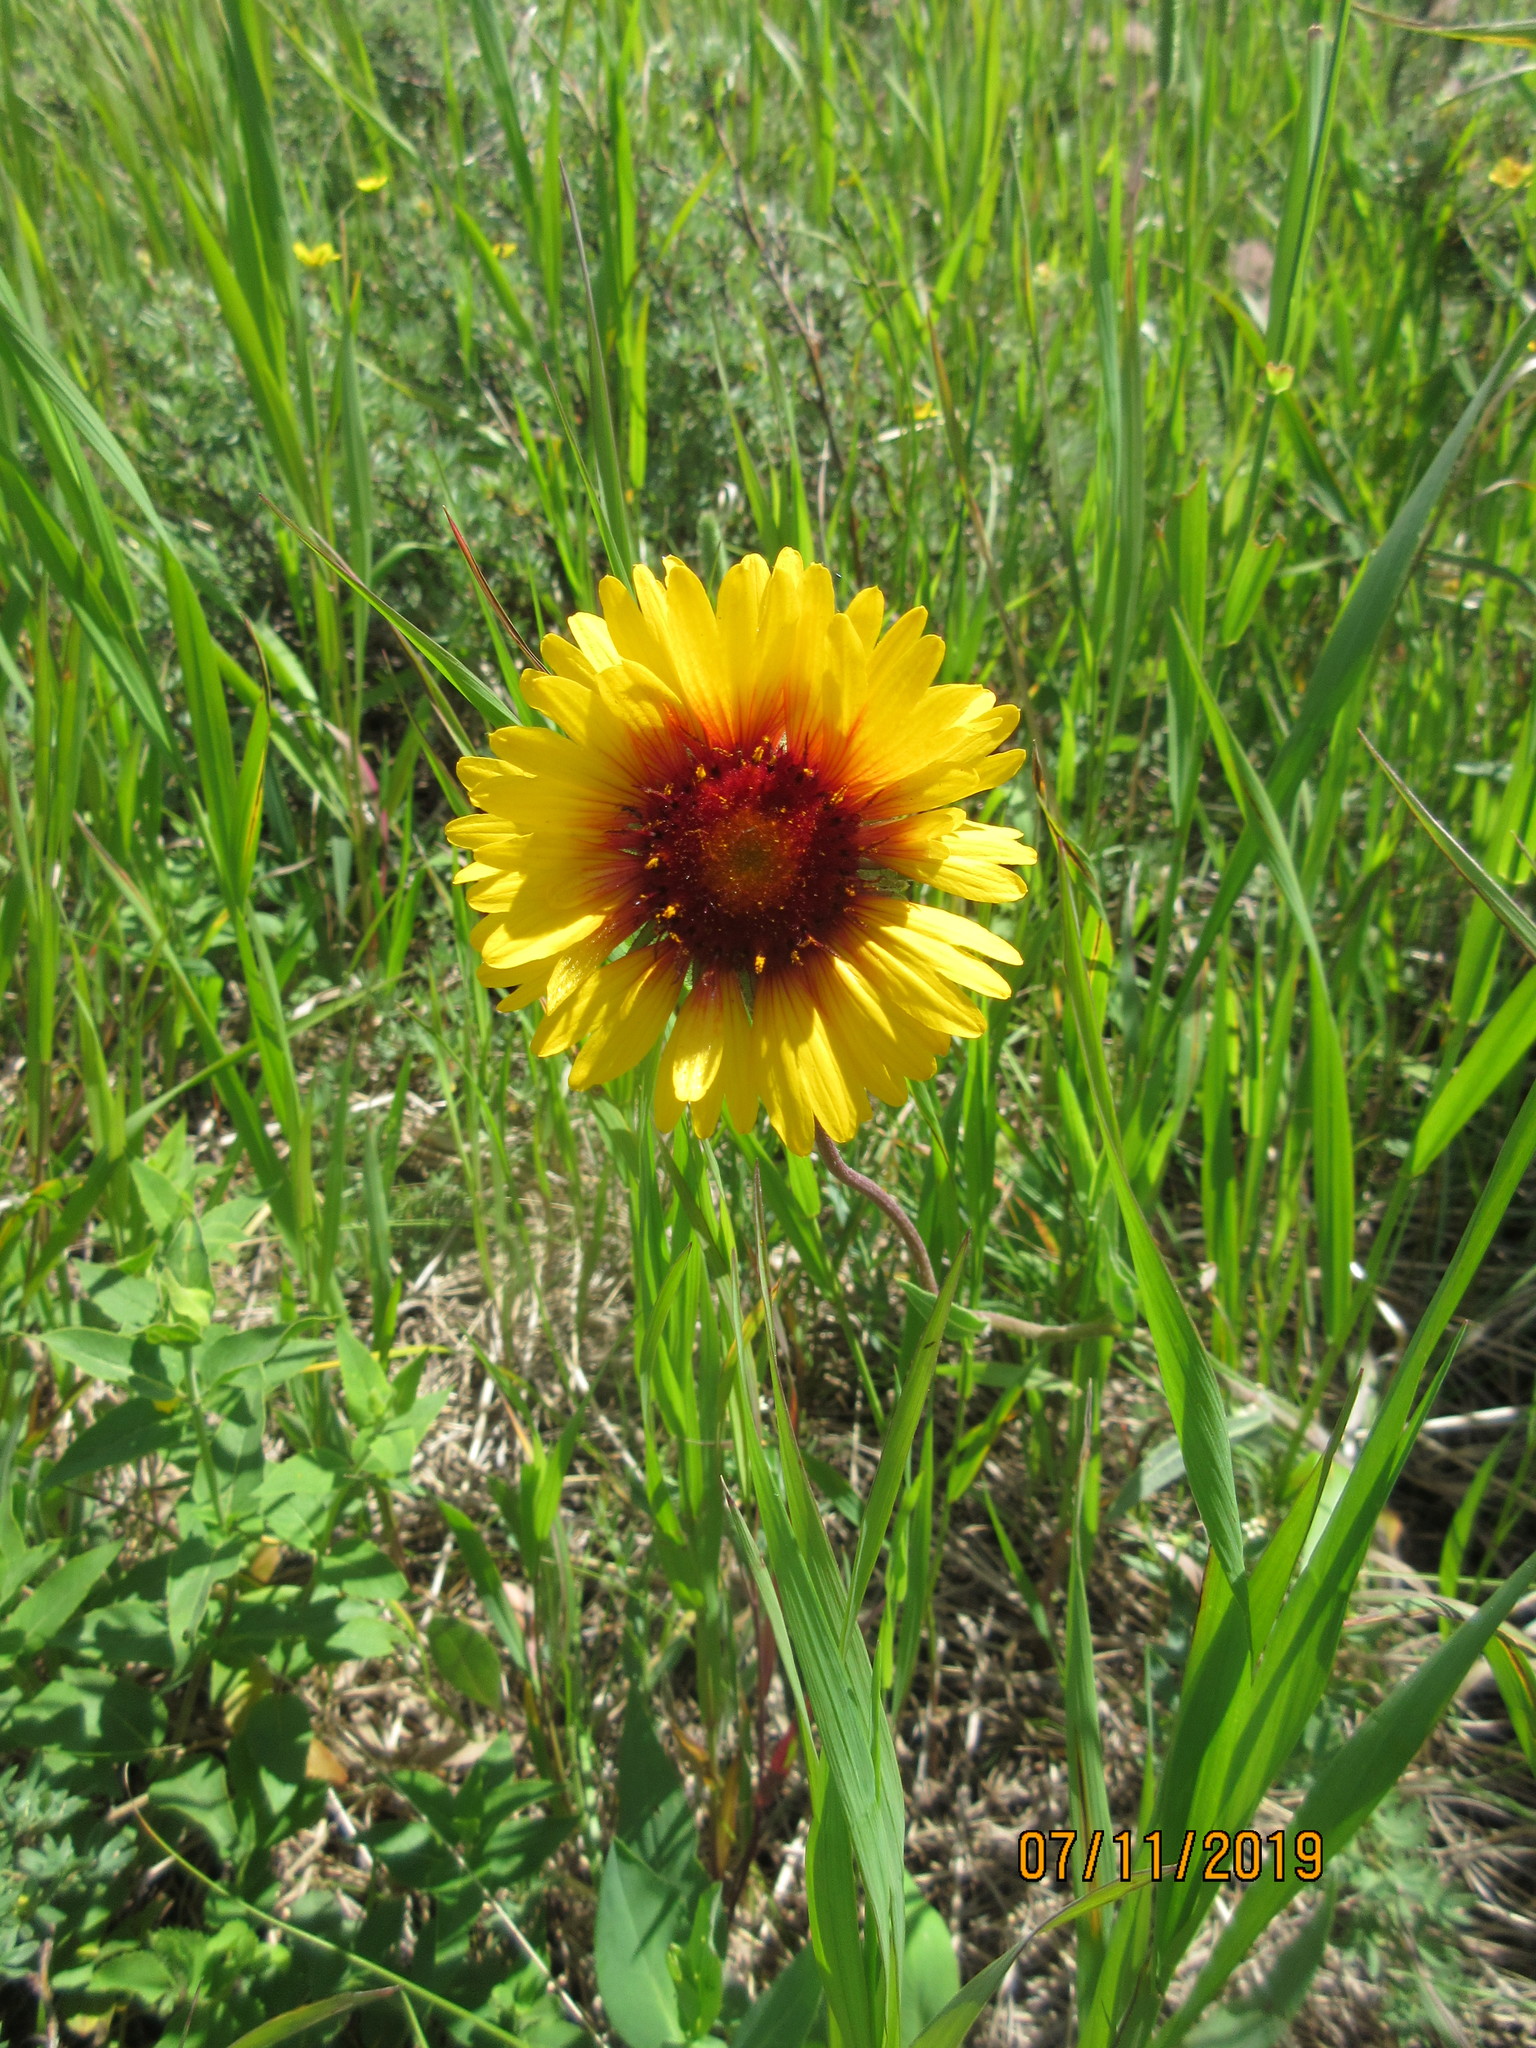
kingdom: Plantae
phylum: Tracheophyta
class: Magnoliopsida
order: Asterales
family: Asteraceae
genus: Gaillardia
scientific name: Gaillardia aristata
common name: Blanket-flower
